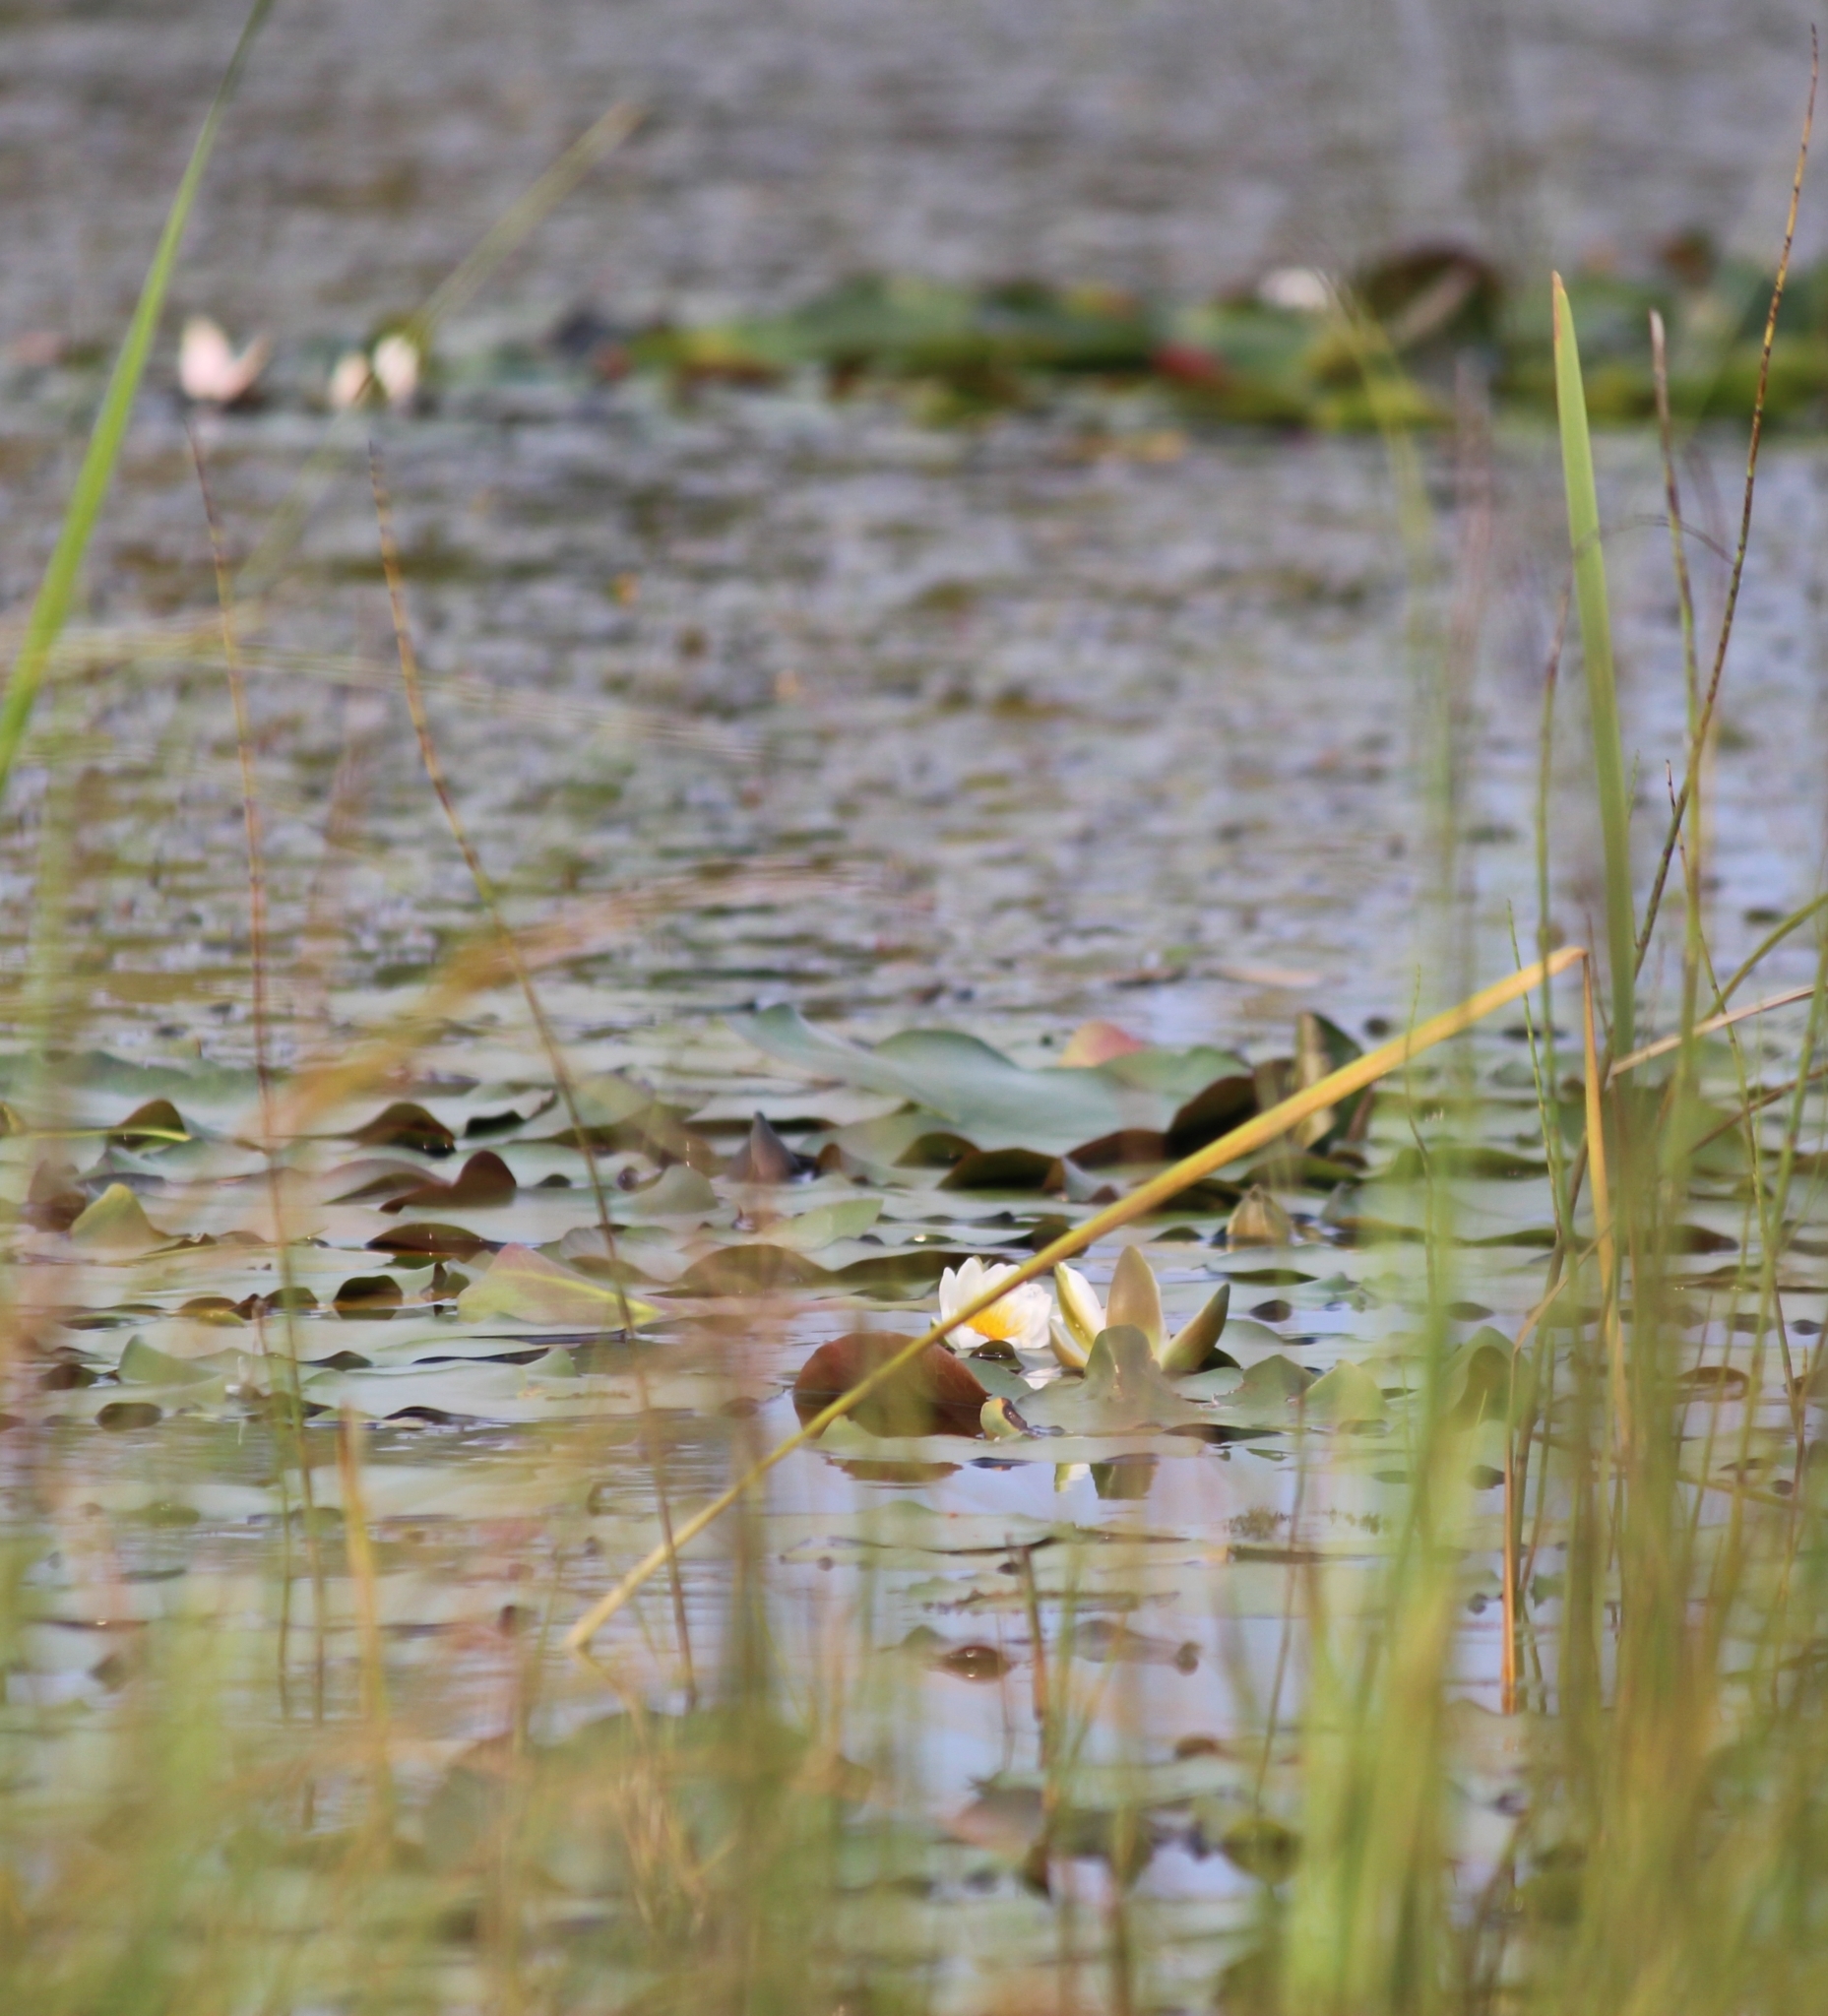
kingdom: Plantae
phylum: Tracheophyta
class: Magnoliopsida
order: Nymphaeales
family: Nymphaeaceae
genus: Nymphaea
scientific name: Nymphaea candida
